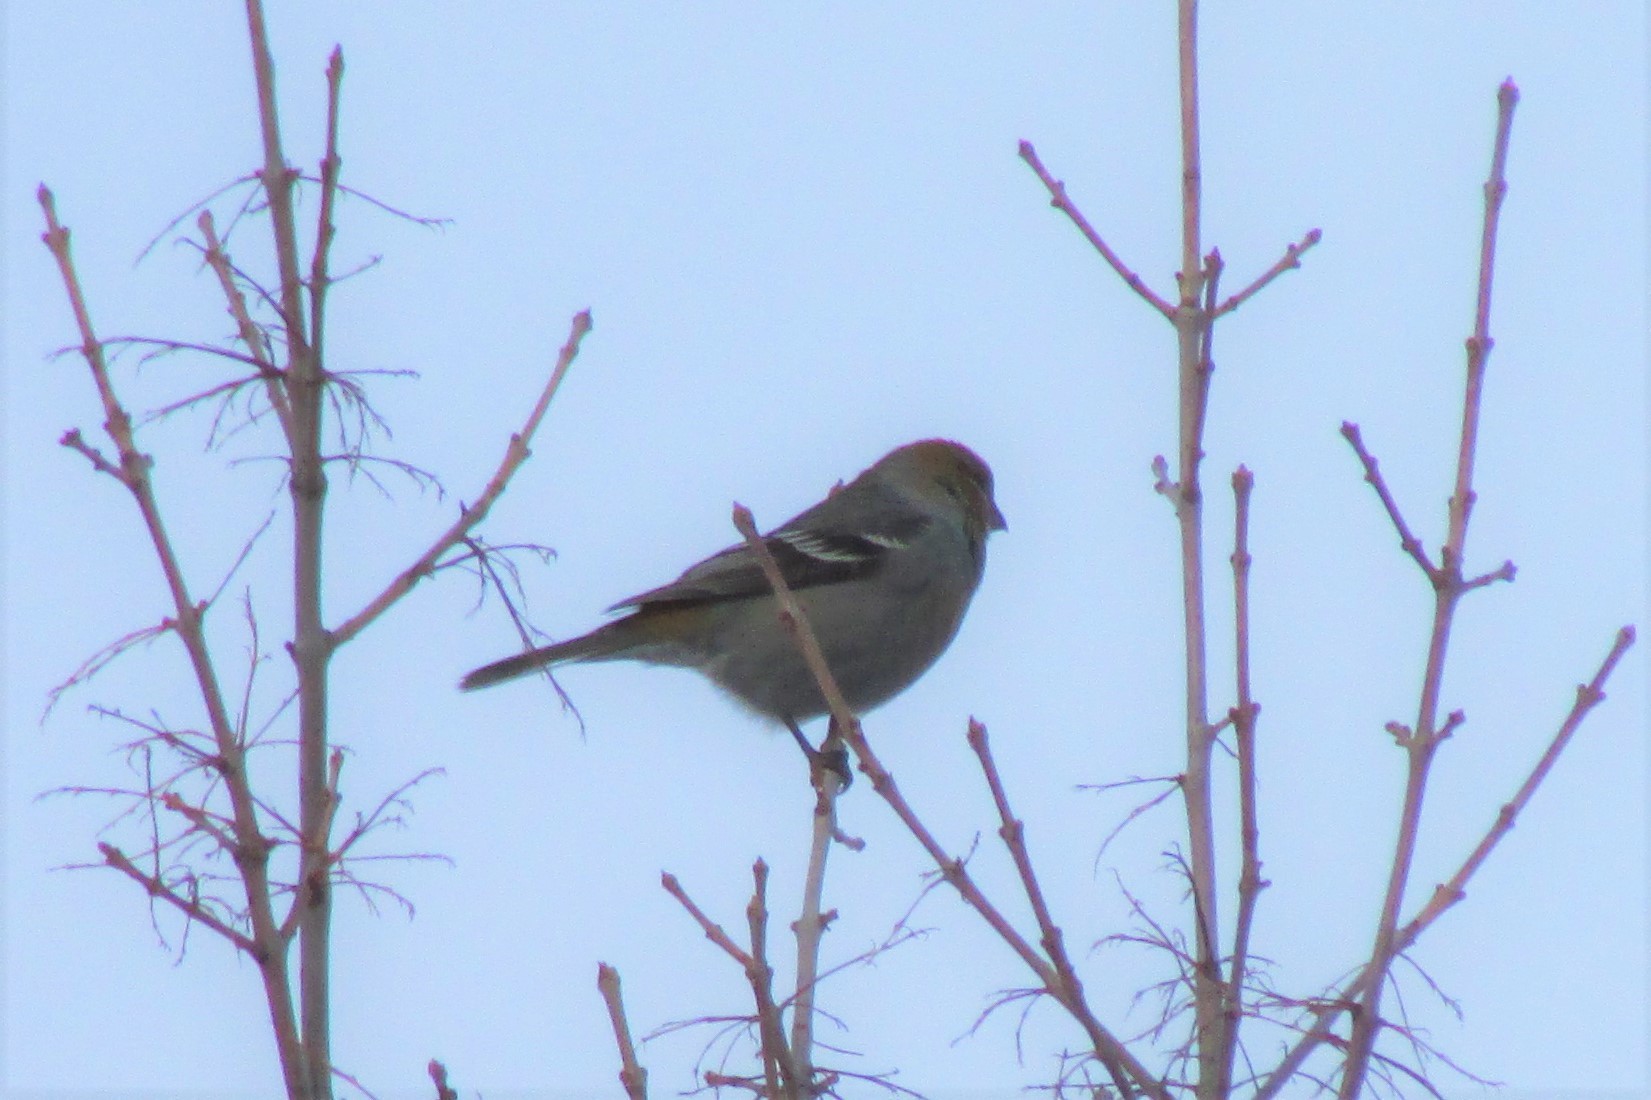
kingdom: Animalia
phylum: Chordata
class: Aves
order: Passeriformes
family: Fringillidae
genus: Pinicola
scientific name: Pinicola enucleator
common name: Pine grosbeak
